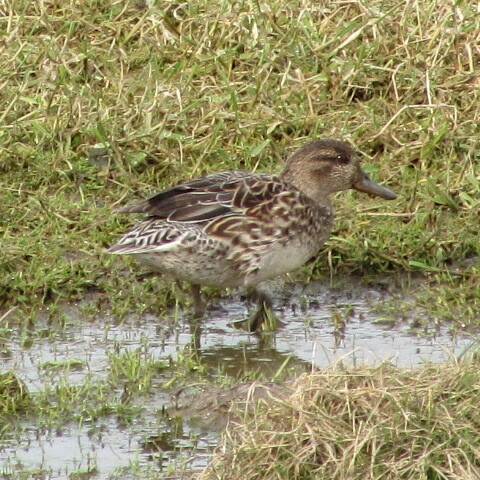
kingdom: Animalia
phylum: Chordata
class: Aves
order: Anseriformes
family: Anatidae
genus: Anas
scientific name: Anas crecca
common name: Eurasian teal
